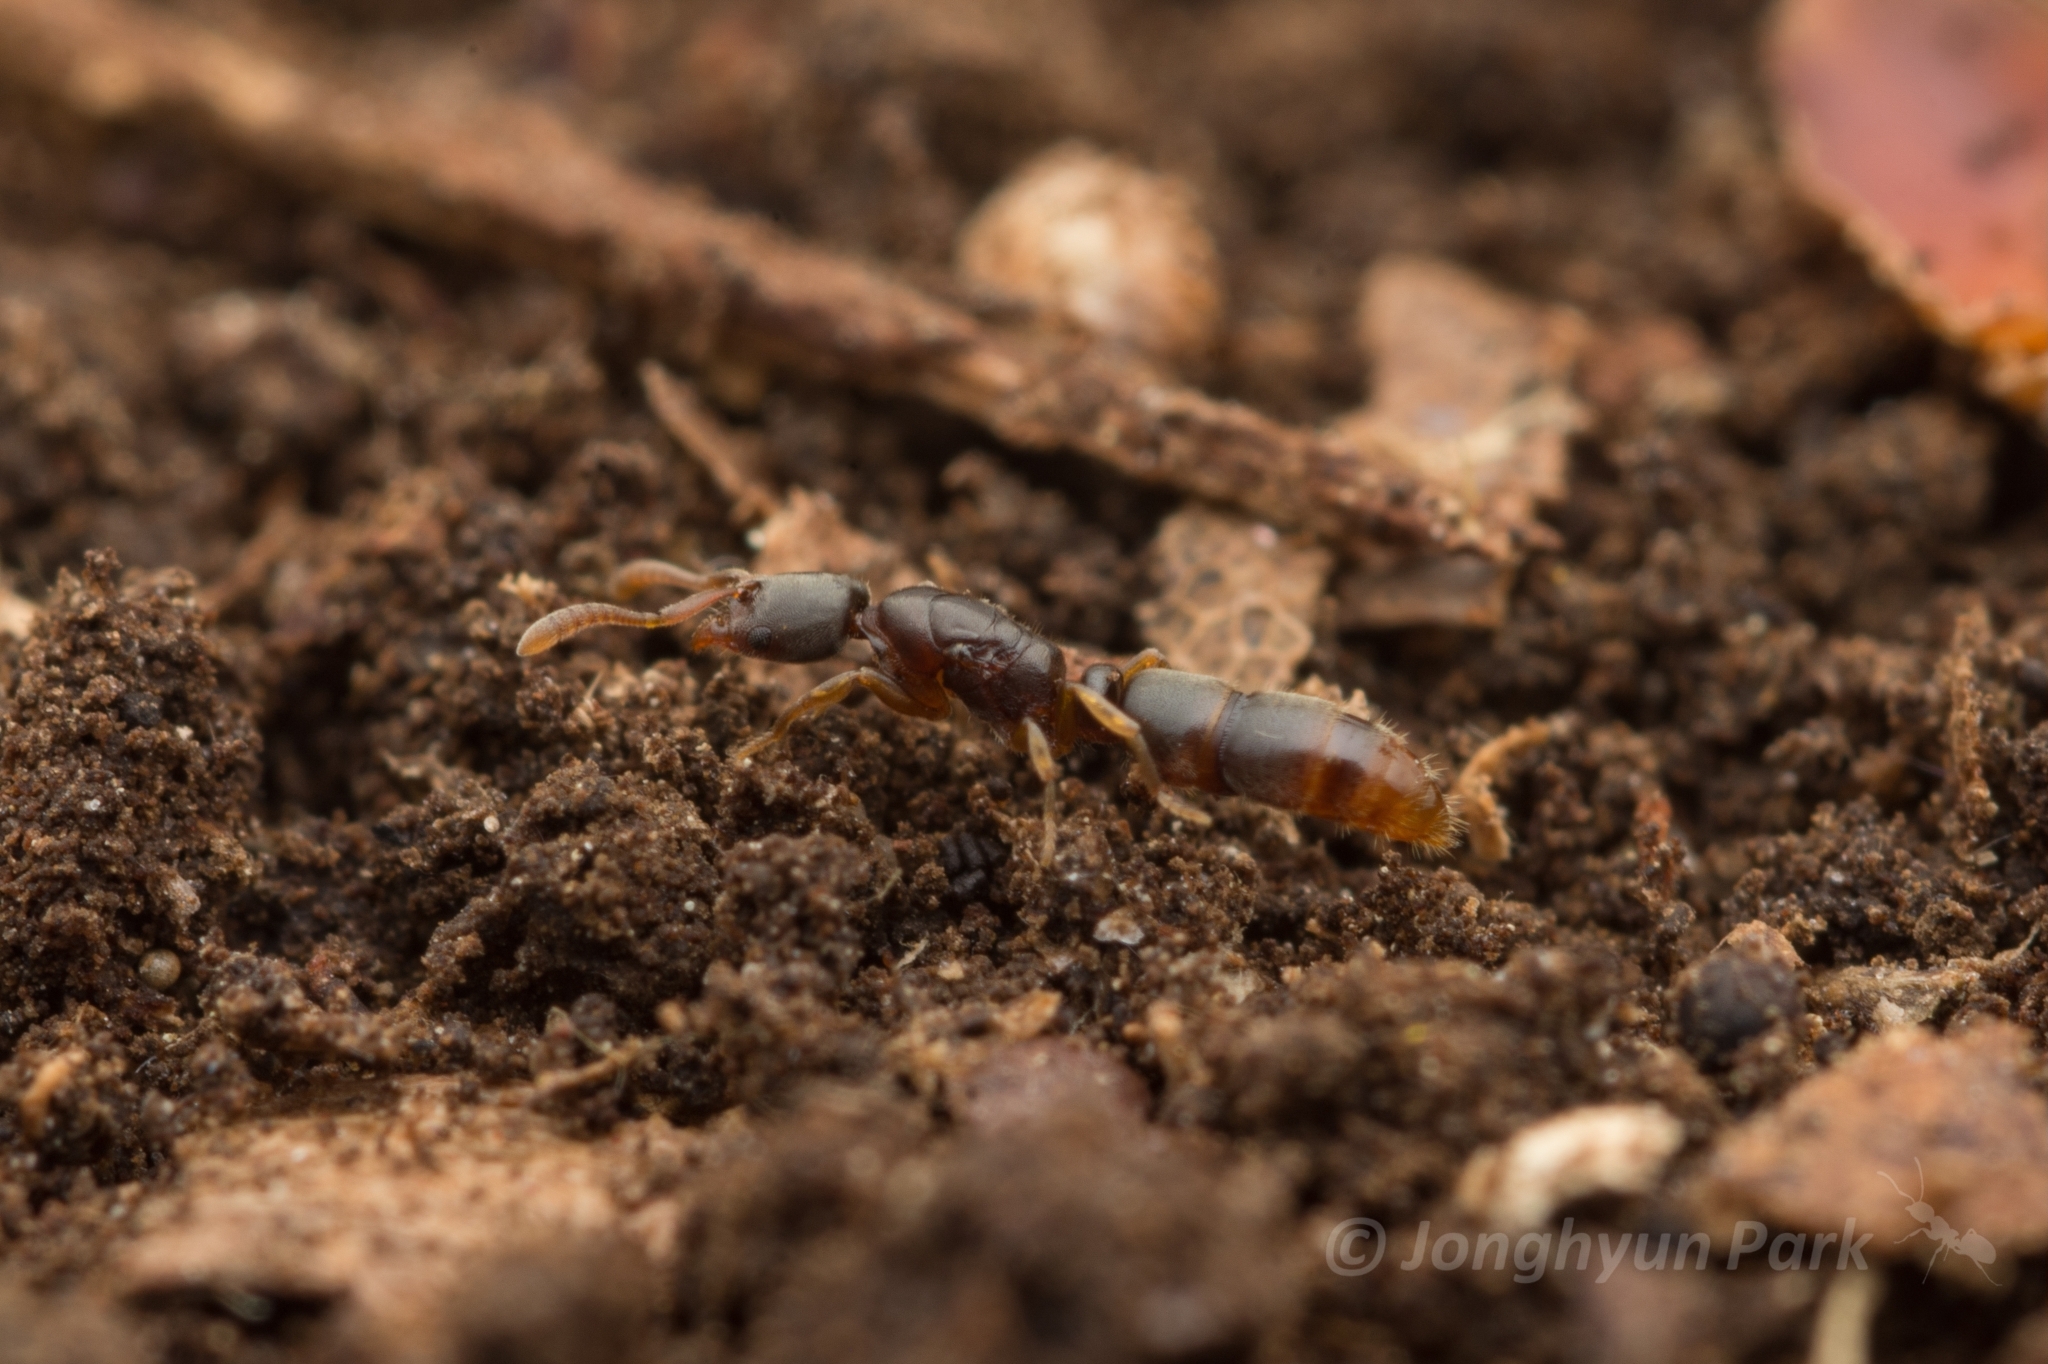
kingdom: Animalia
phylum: Arthropoda
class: Insecta
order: Hymenoptera
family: Formicidae
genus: Ponera
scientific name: Ponera japonica
